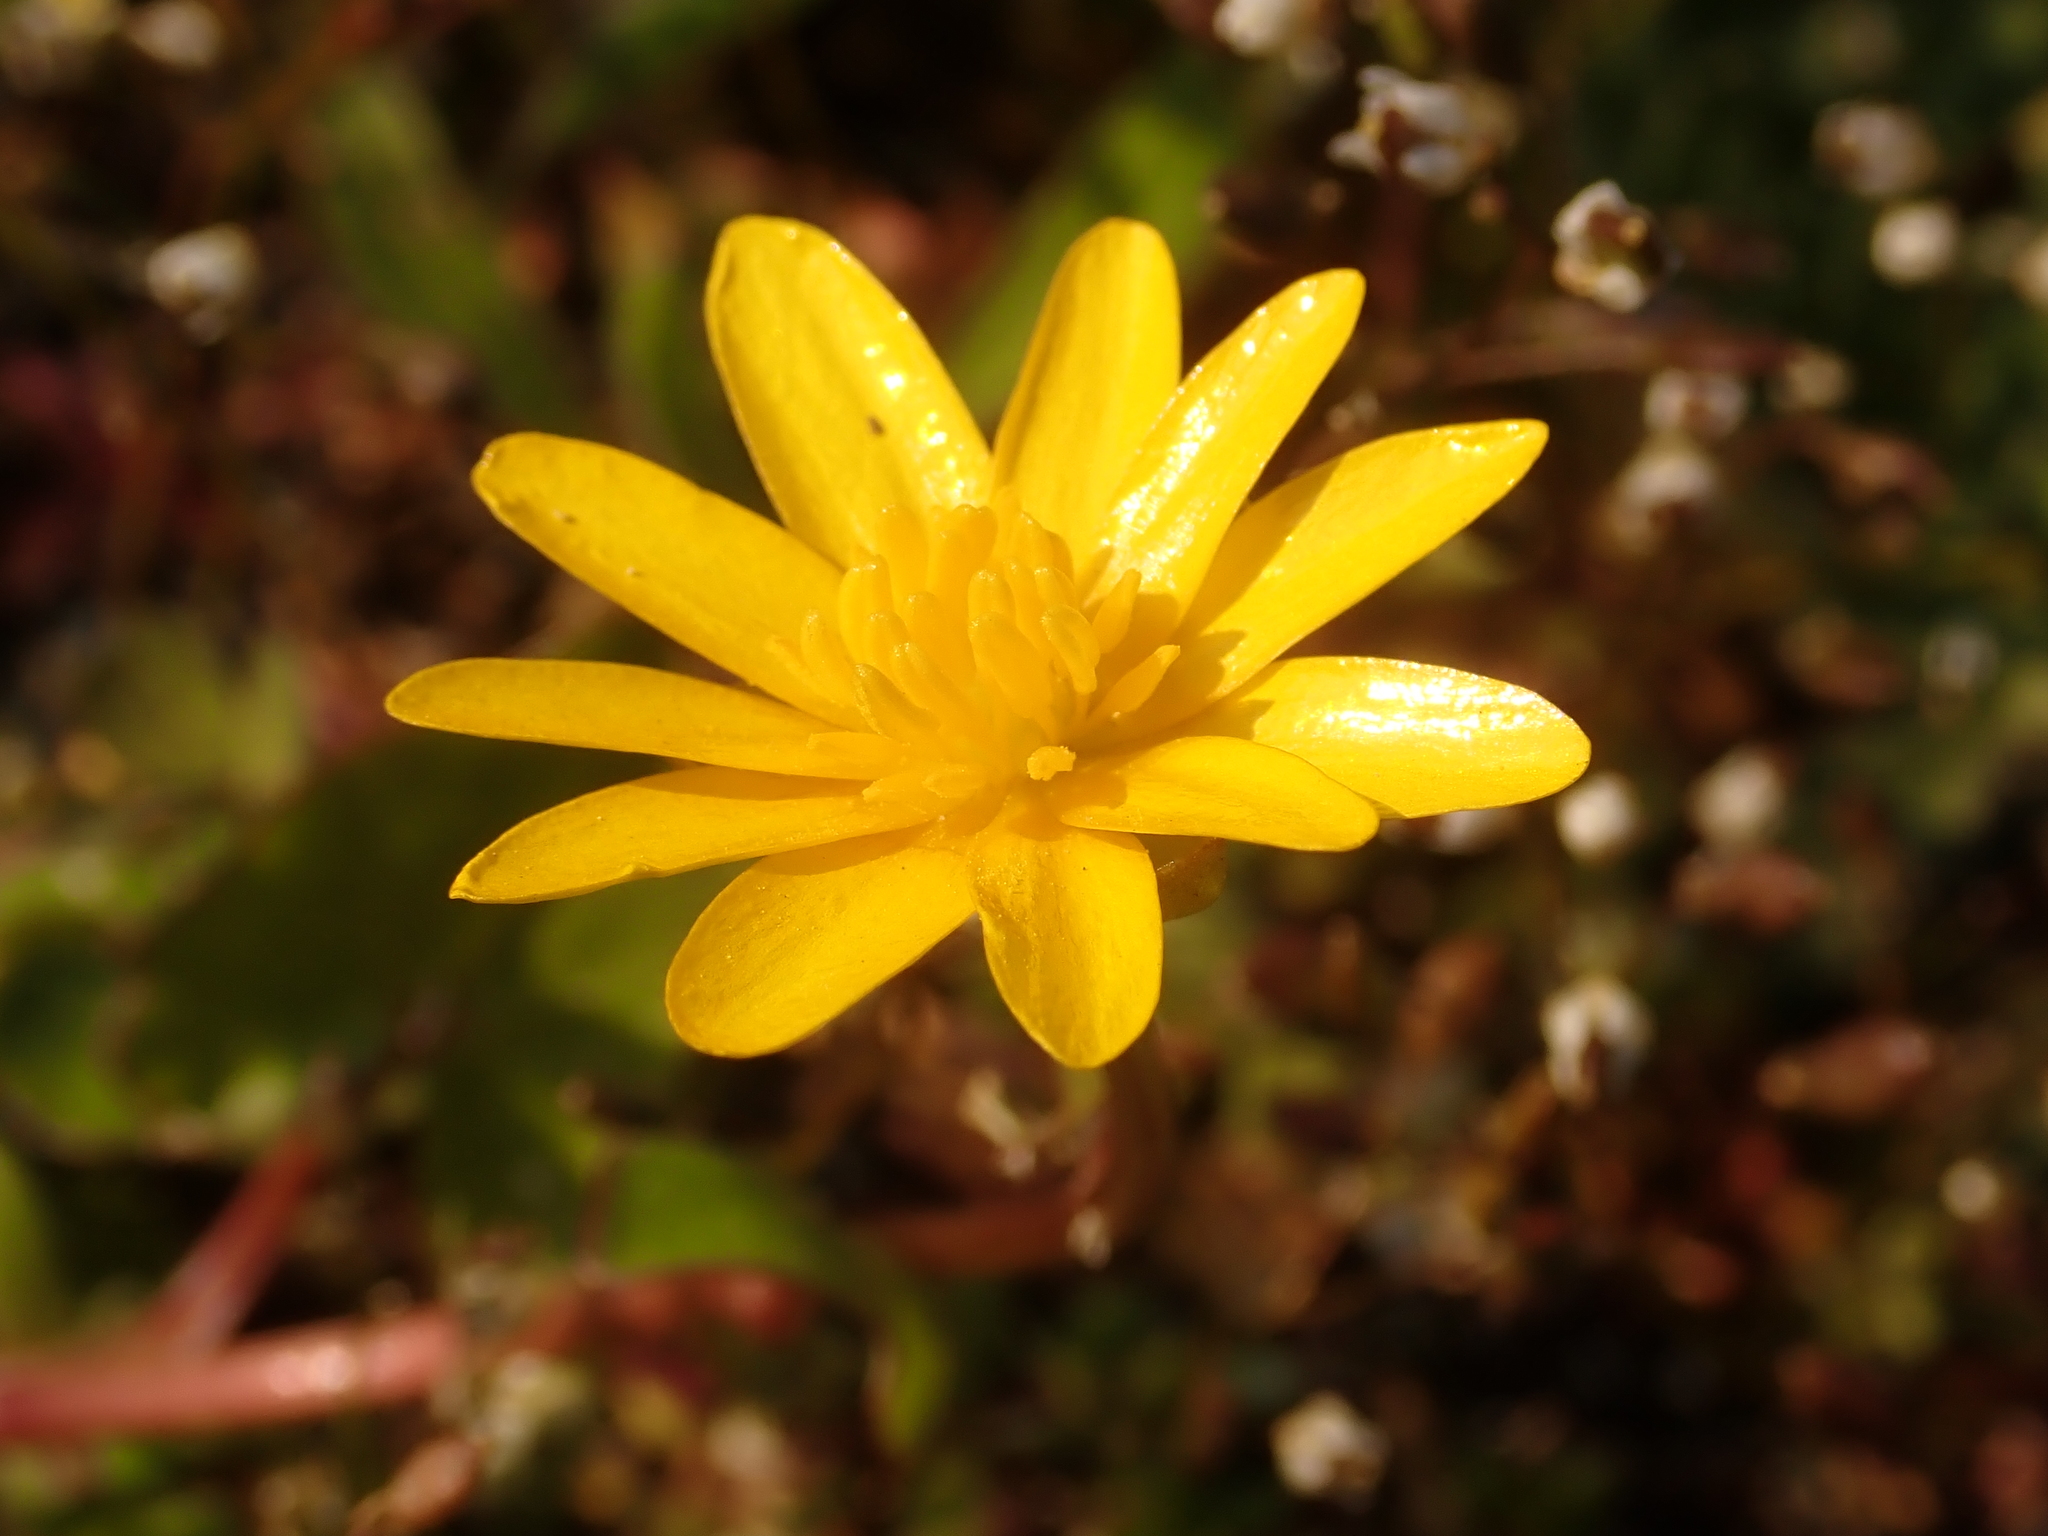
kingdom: Plantae
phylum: Tracheophyta
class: Magnoliopsida
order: Ranunculales
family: Ranunculaceae
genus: Ficaria
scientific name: Ficaria verna
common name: Lesser celandine
